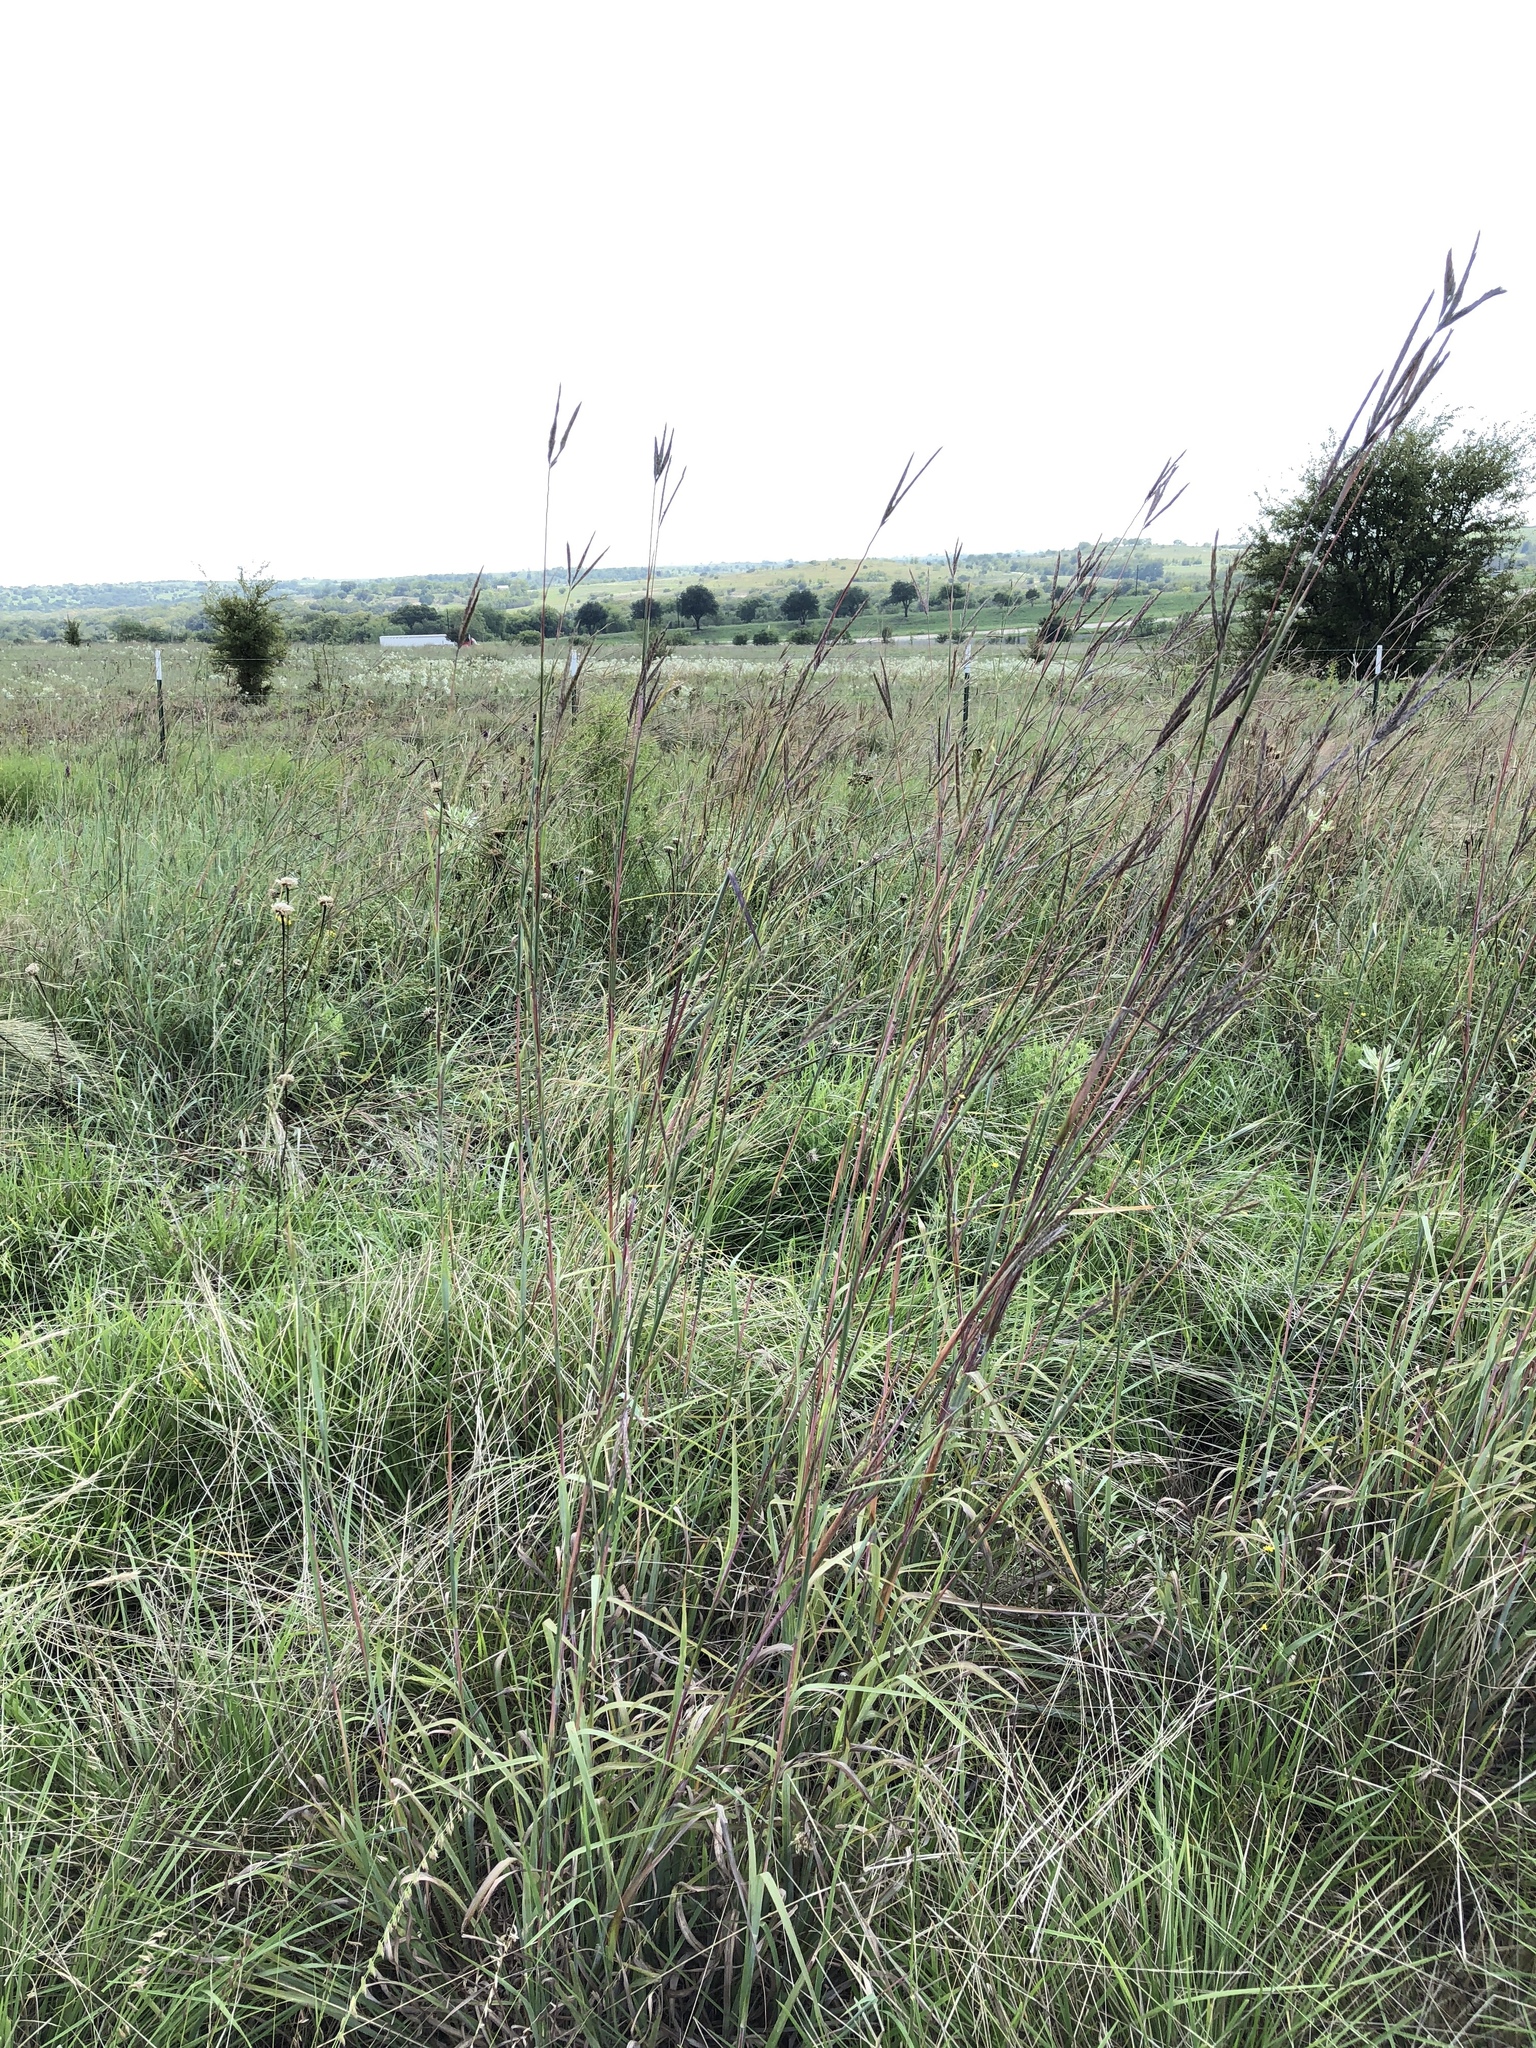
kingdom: Plantae
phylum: Tracheophyta
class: Liliopsida
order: Poales
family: Poaceae
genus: Andropogon
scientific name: Andropogon gerardi
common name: Big bluestem
